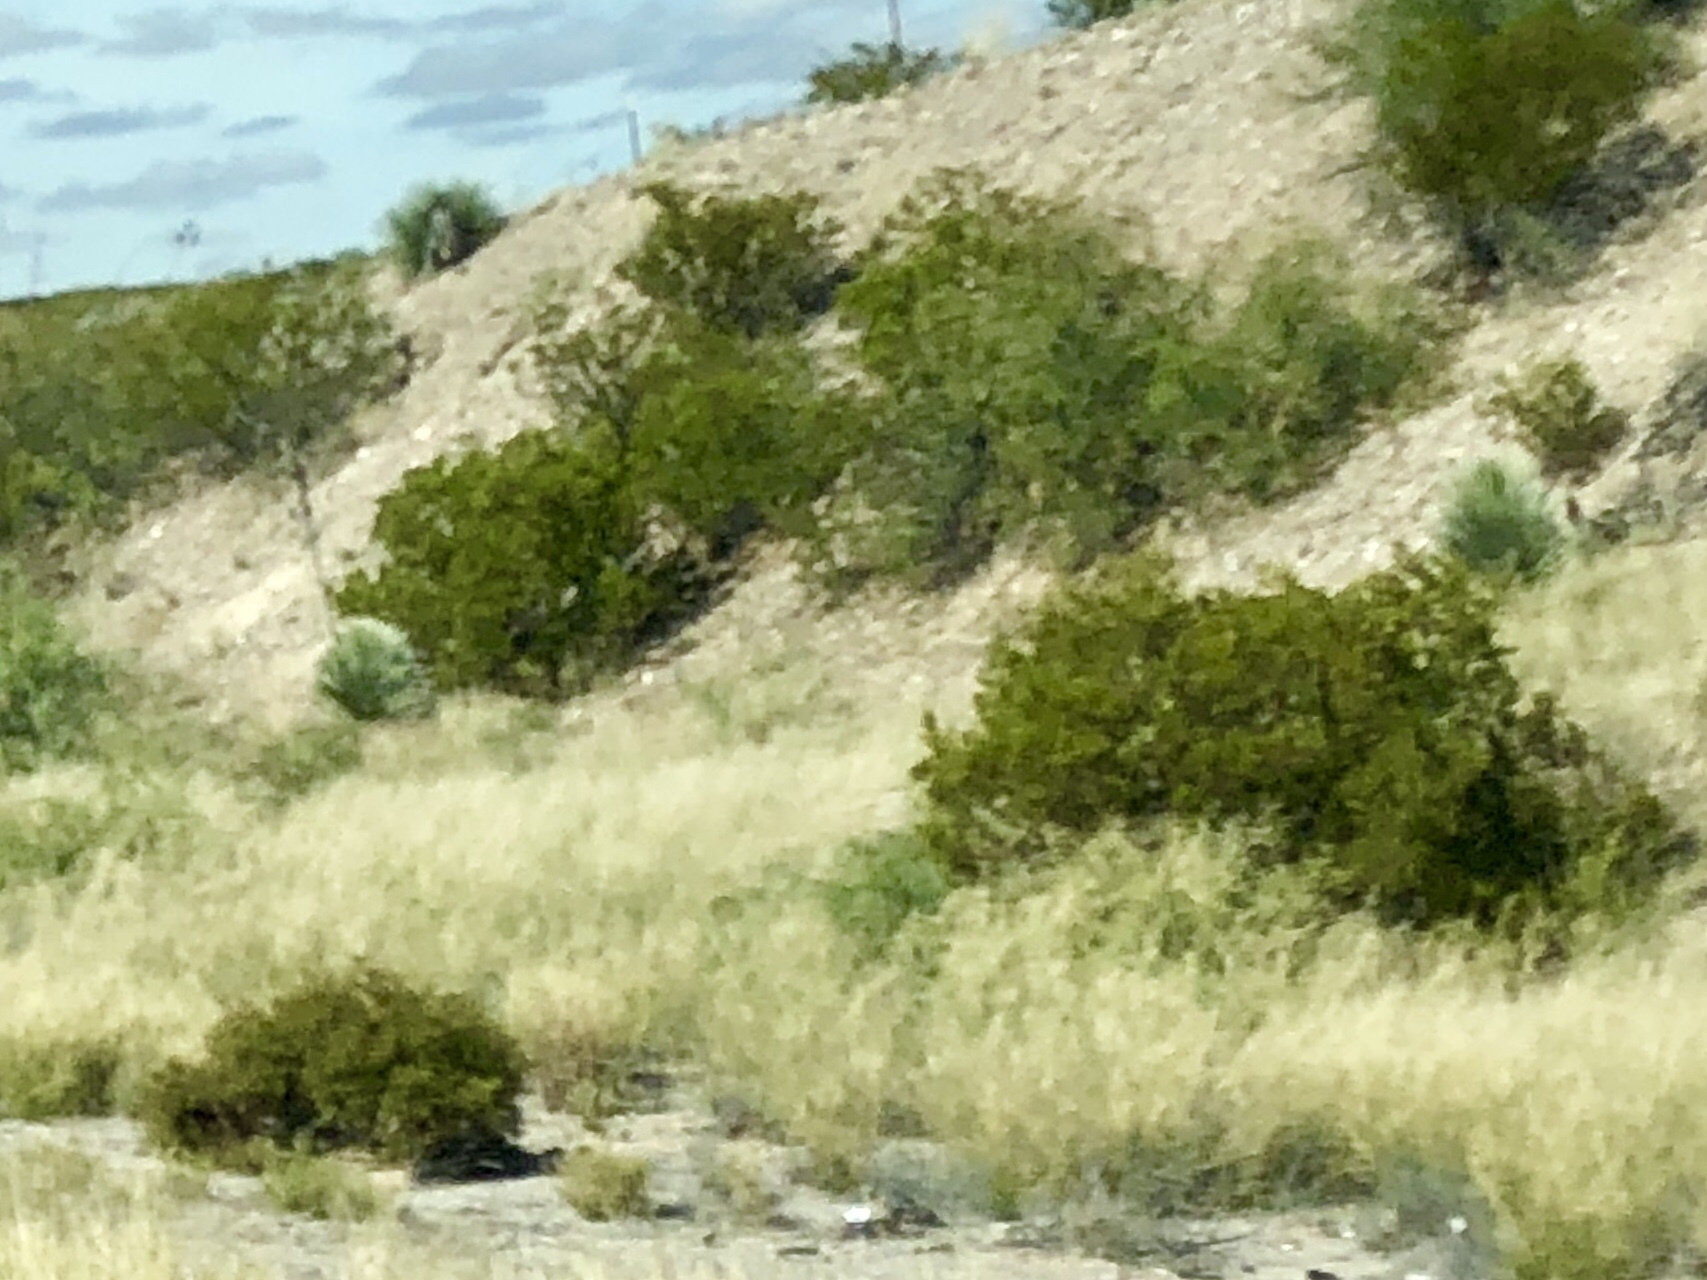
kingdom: Plantae
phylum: Tracheophyta
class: Magnoliopsida
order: Zygophyllales
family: Zygophyllaceae
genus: Larrea
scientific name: Larrea tridentata
